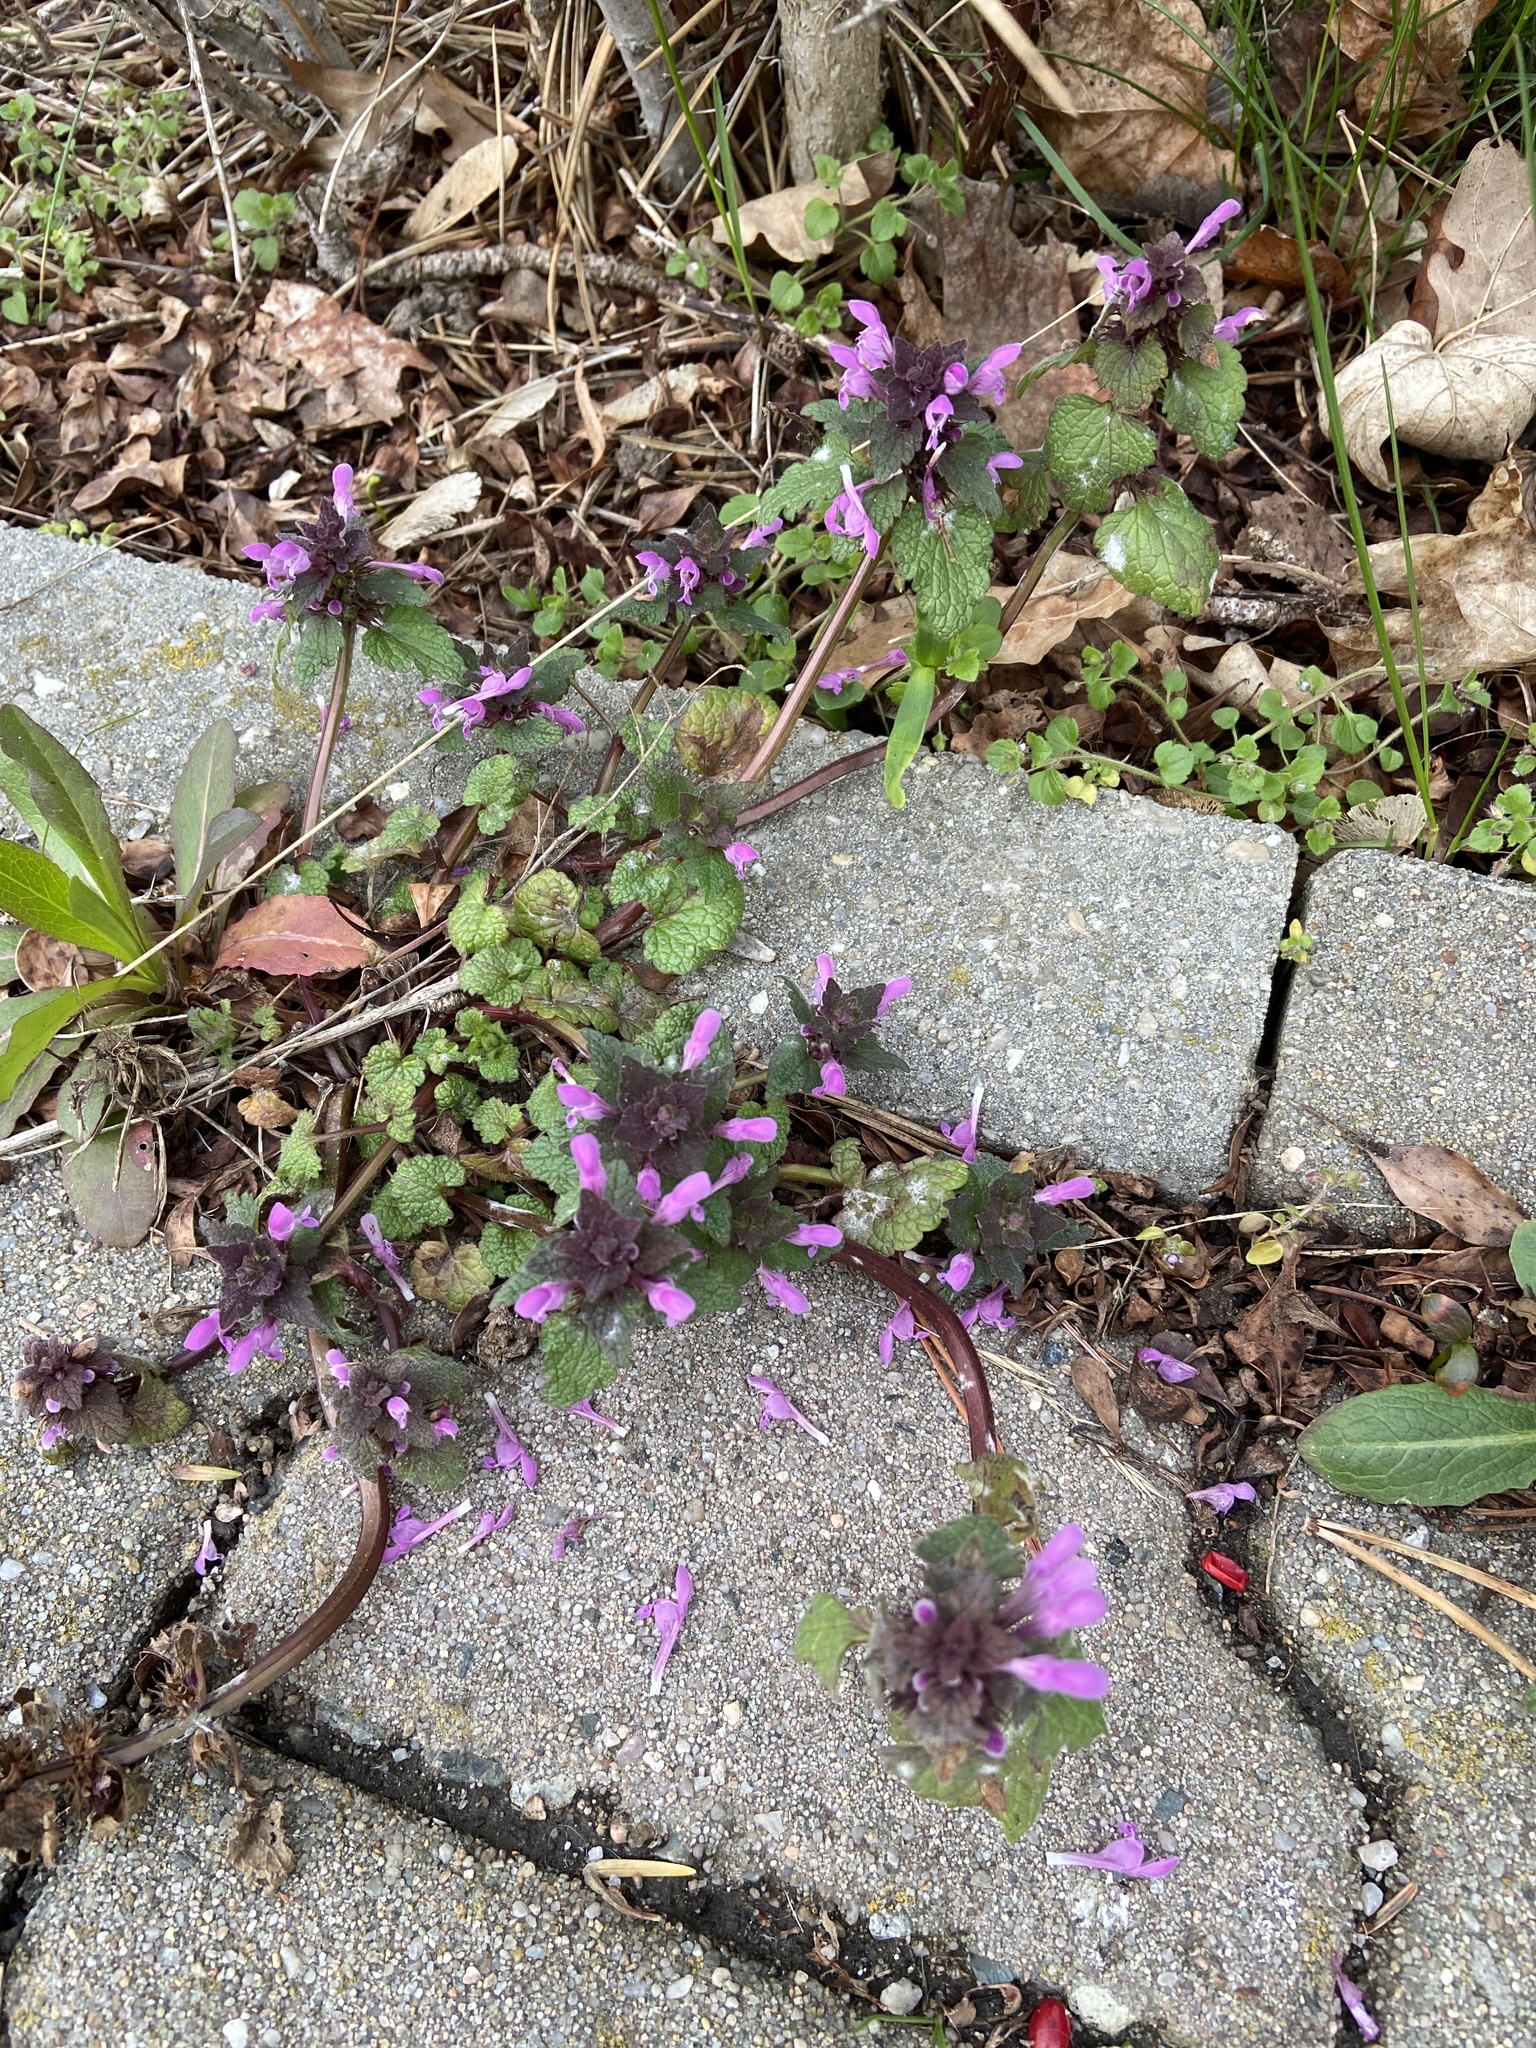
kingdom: Plantae
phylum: Tracheophyta
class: Magnoliopsida
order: Lamiales
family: Lamiaceae
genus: Lamium
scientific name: Lamium purpureum
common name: Red dead-nettle
